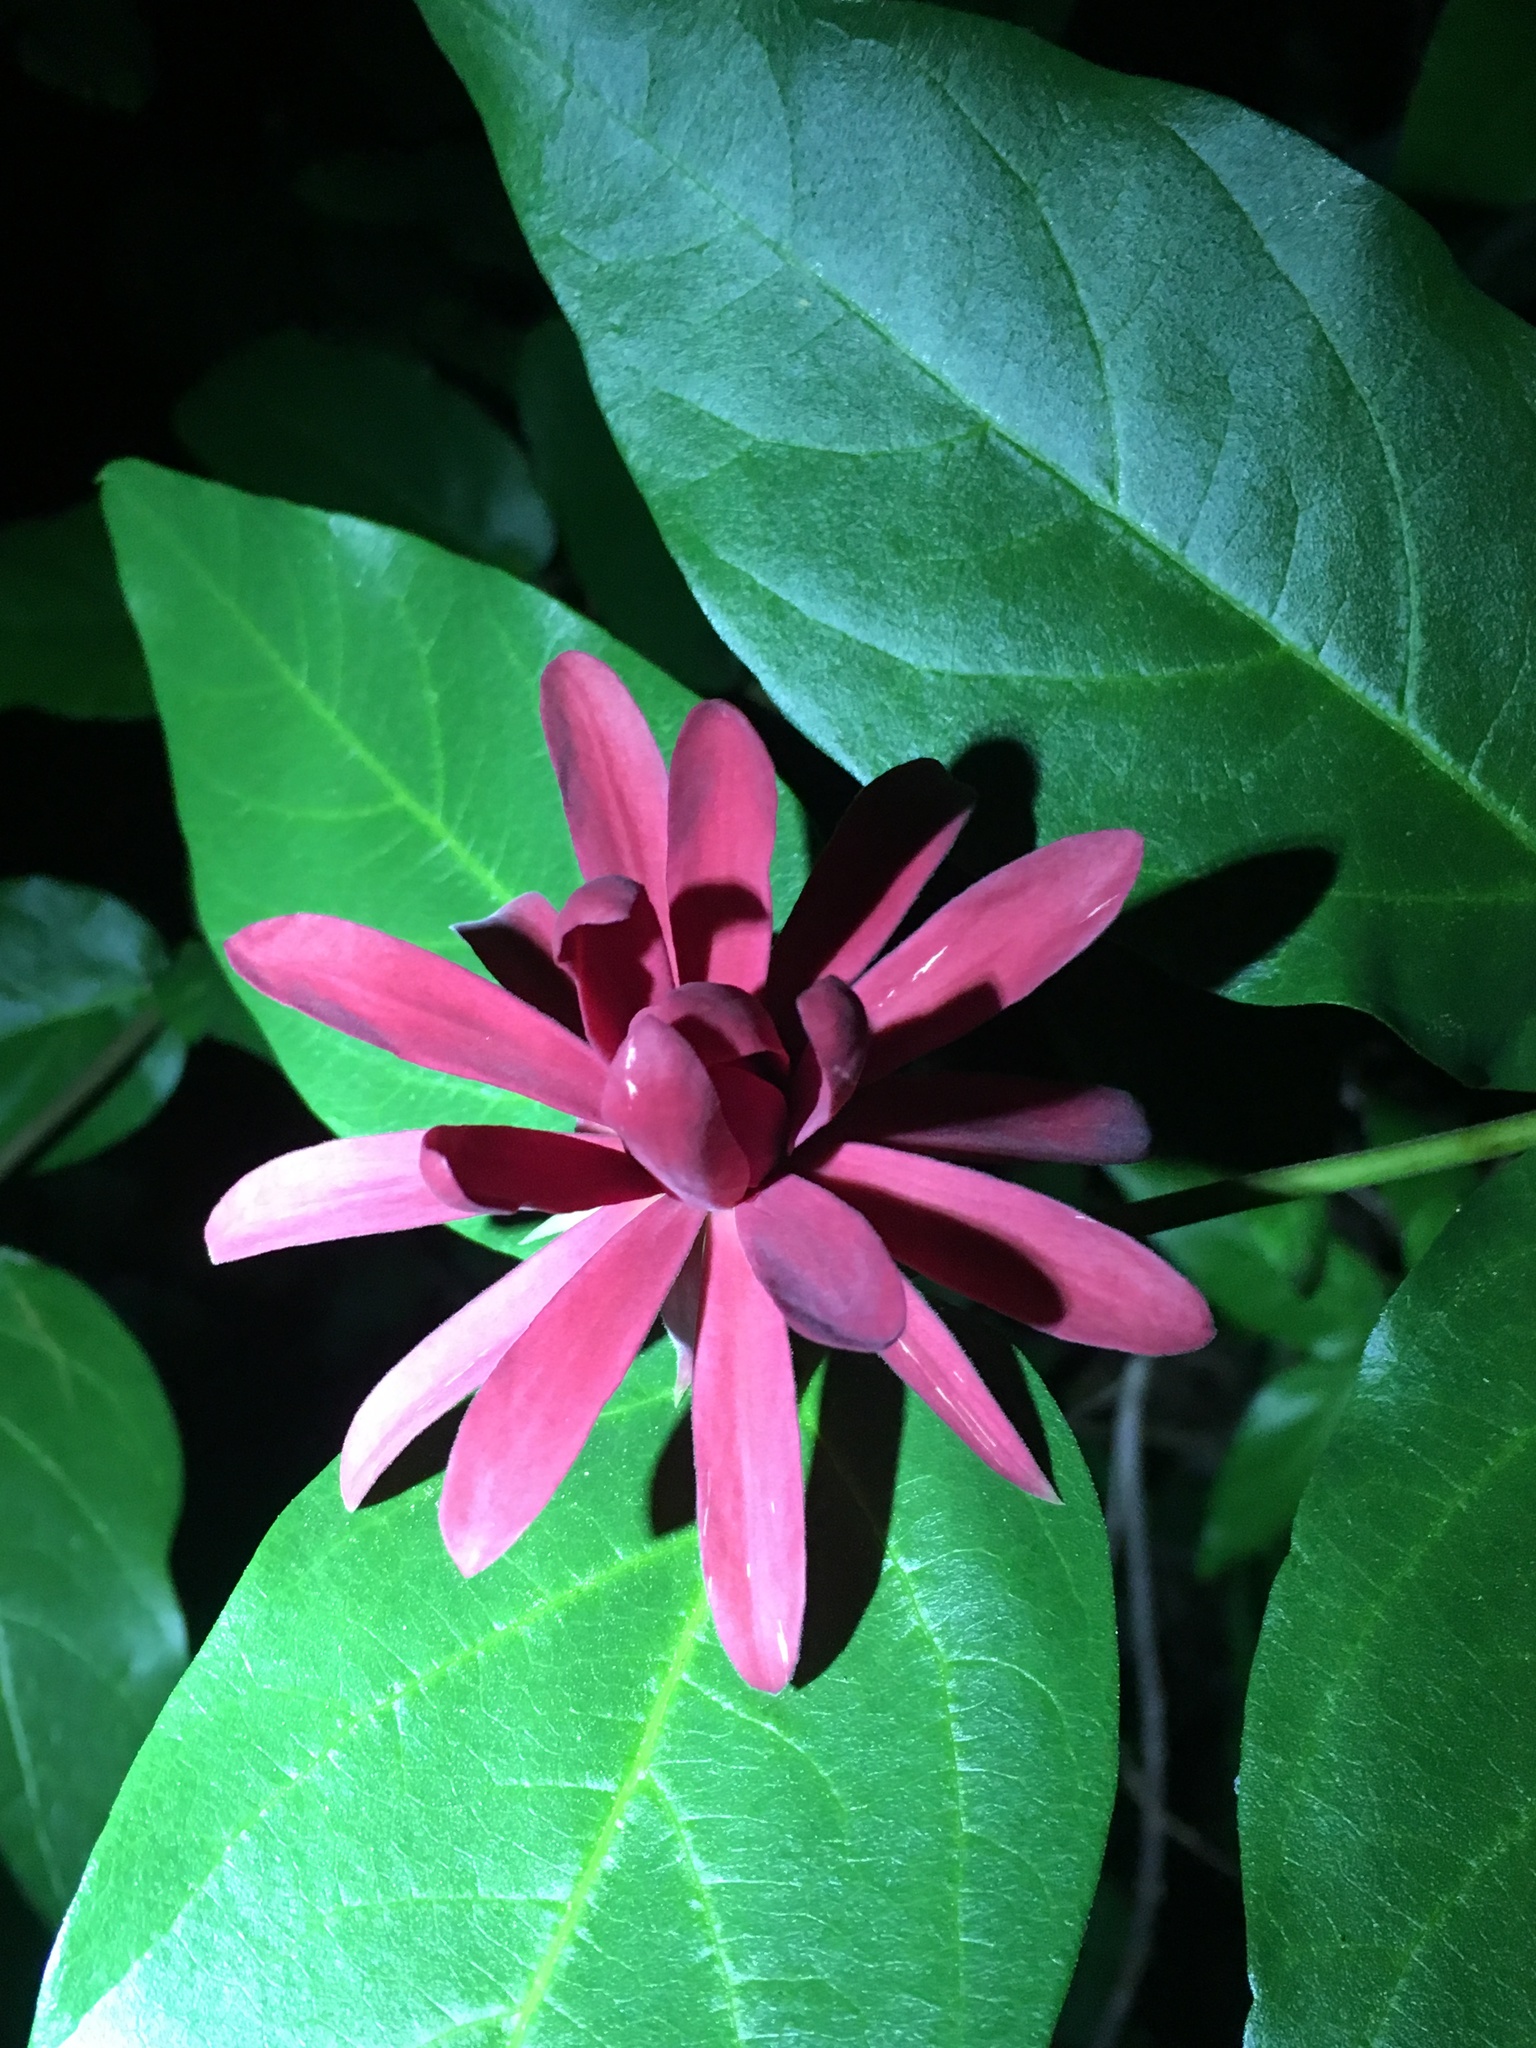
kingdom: Plantae
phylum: Tracheophyta
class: Magnoliopsida
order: Laurales
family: Calycanthaceae
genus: Calycanthus
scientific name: Calycanthus occidentalis
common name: California spicebush
